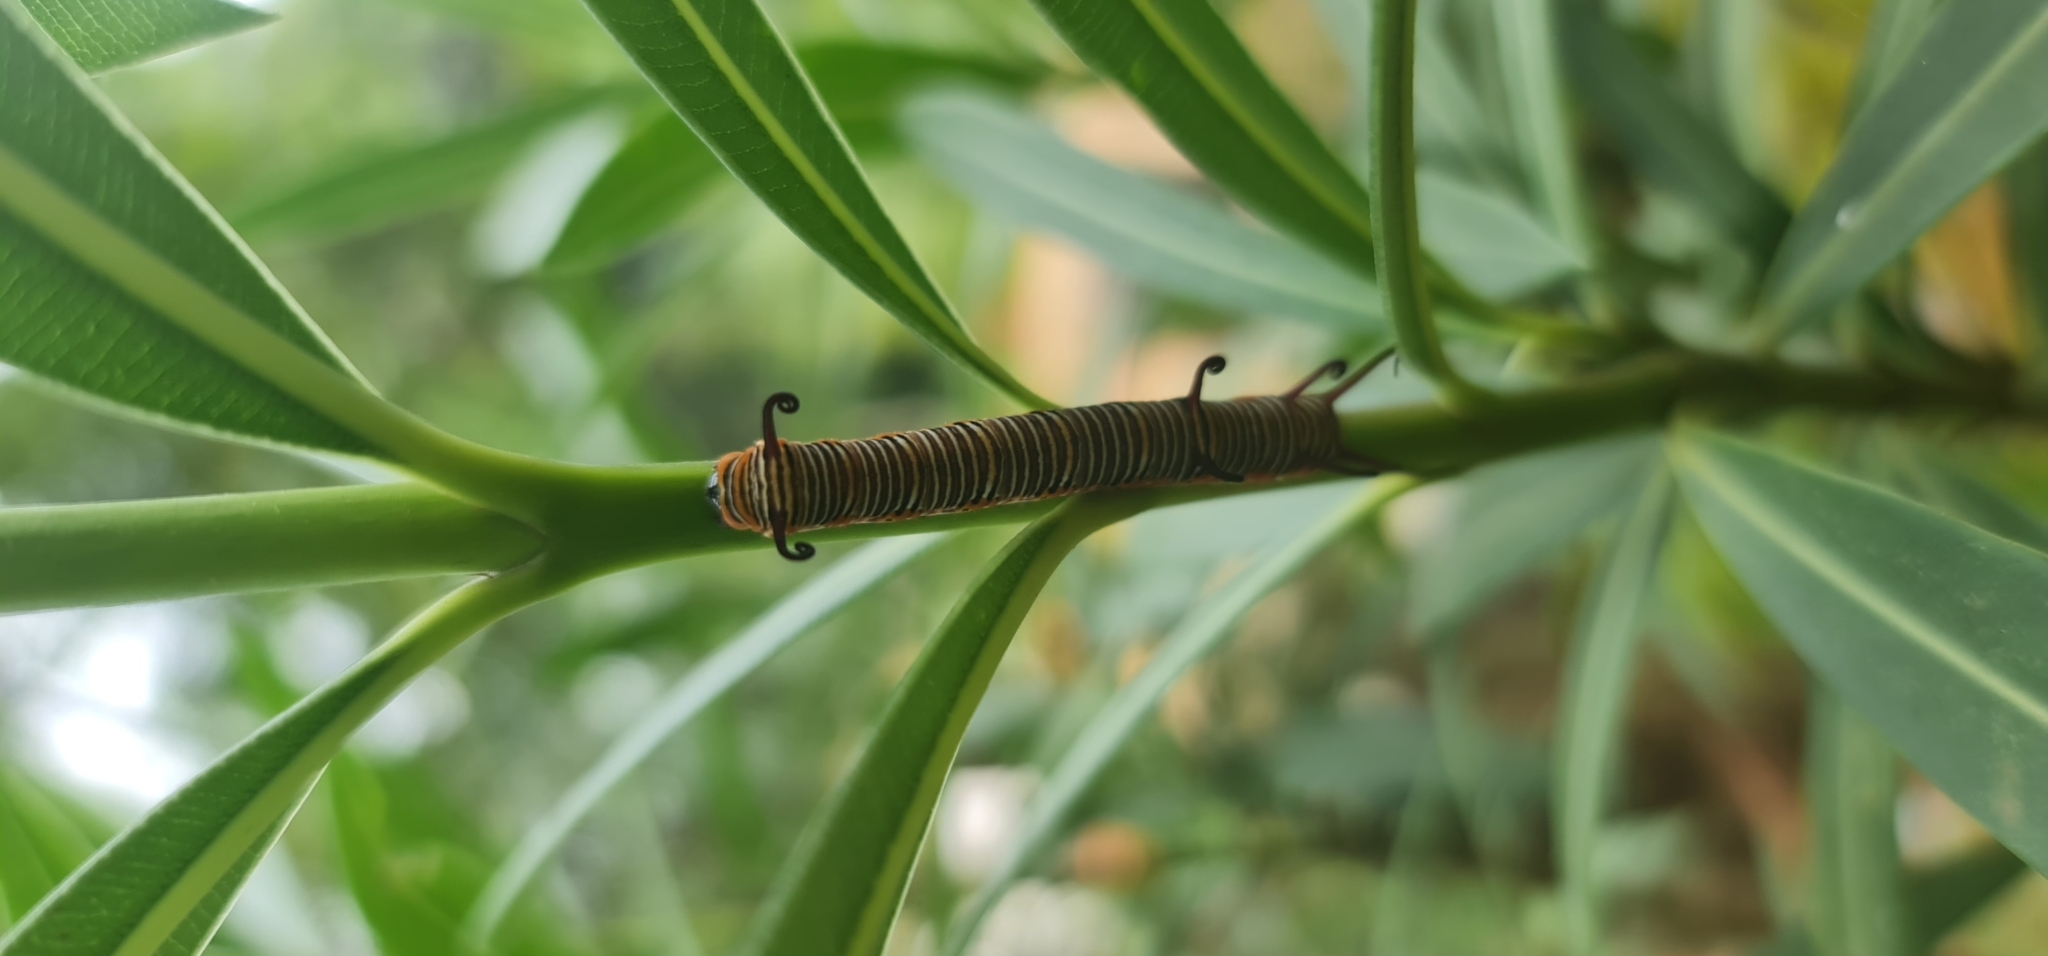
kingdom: Animalia
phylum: Arthropoda
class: Insecta
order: Lepidoptera
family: Nymphalidae
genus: Euploea
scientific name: Euploea core
